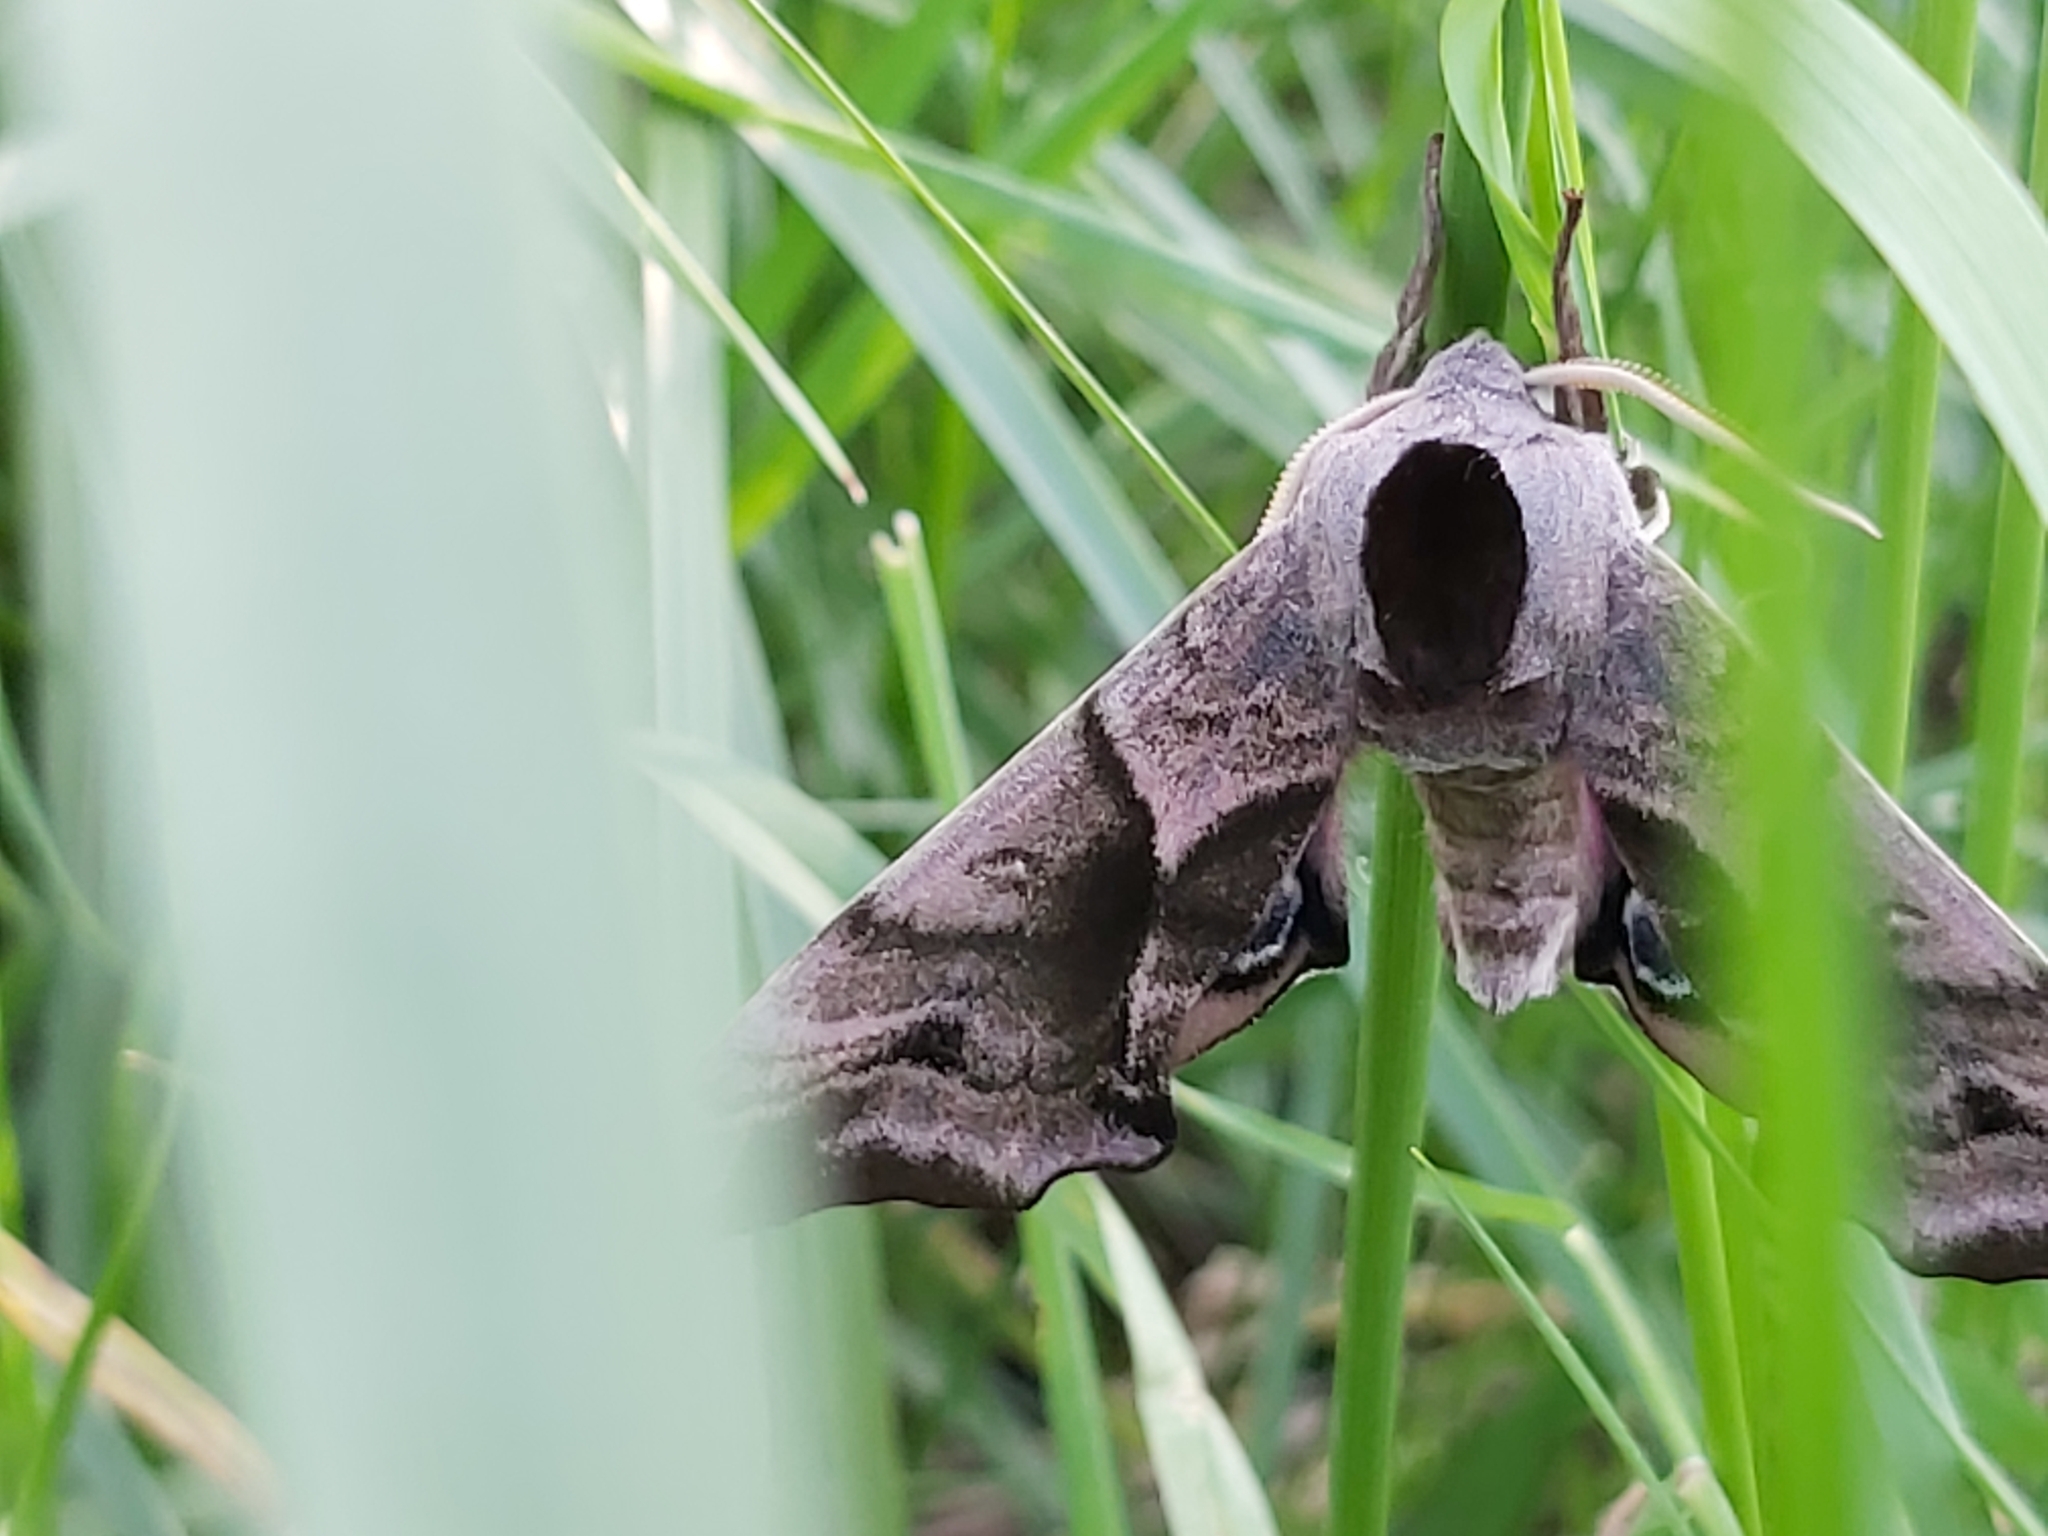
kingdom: Animalia
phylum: Arthropoda
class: Insecta
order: Lepidoptera
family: Sphingidae
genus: Smerinthus
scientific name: Smerinthus ocellata
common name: Eyed hawk-moth
